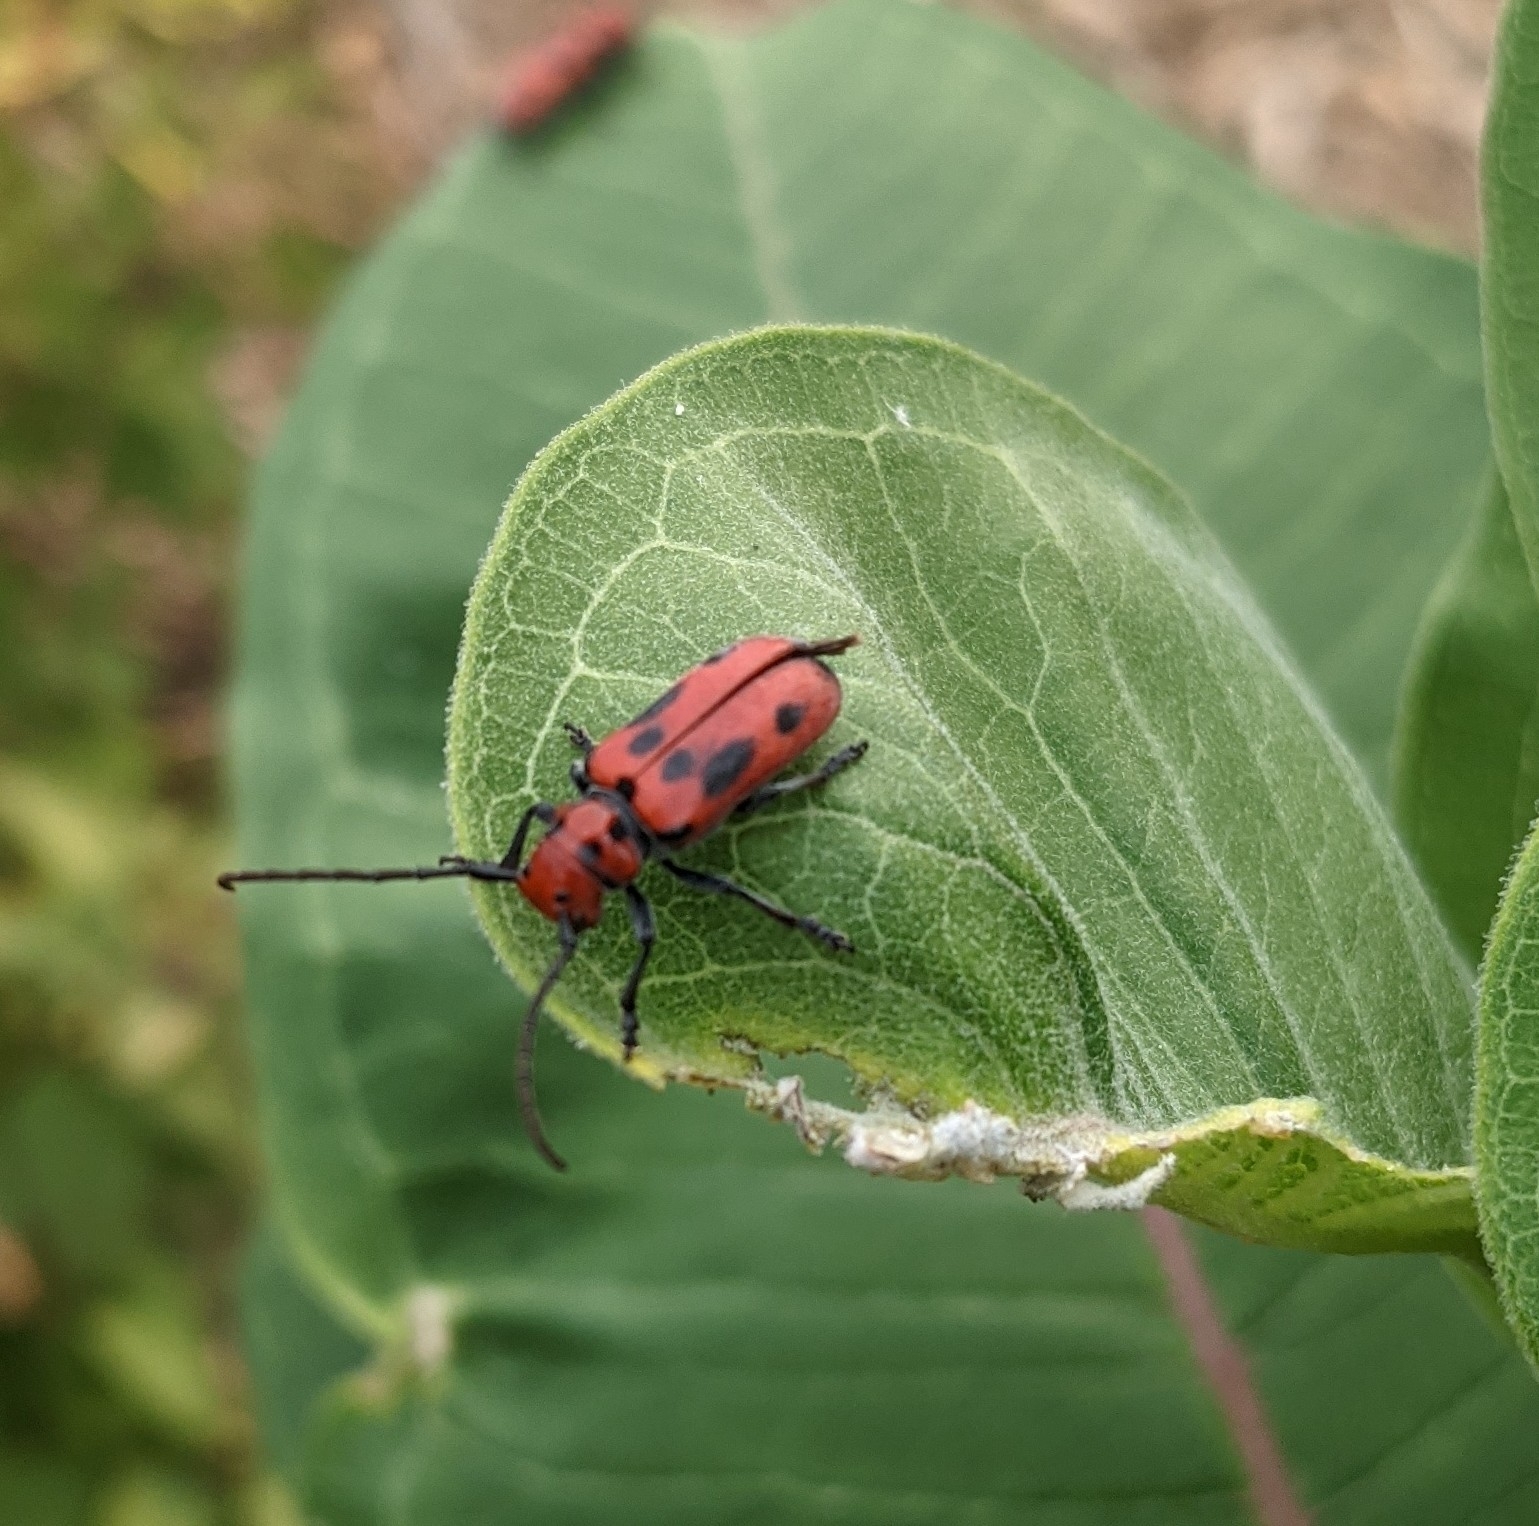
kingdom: Animalia
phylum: Arthropoda
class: Insecta
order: Coleoptera
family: Cerambycidae
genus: Tetraopes
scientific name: Tetraopes tetrophthalmus
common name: Red milkweed beetle
